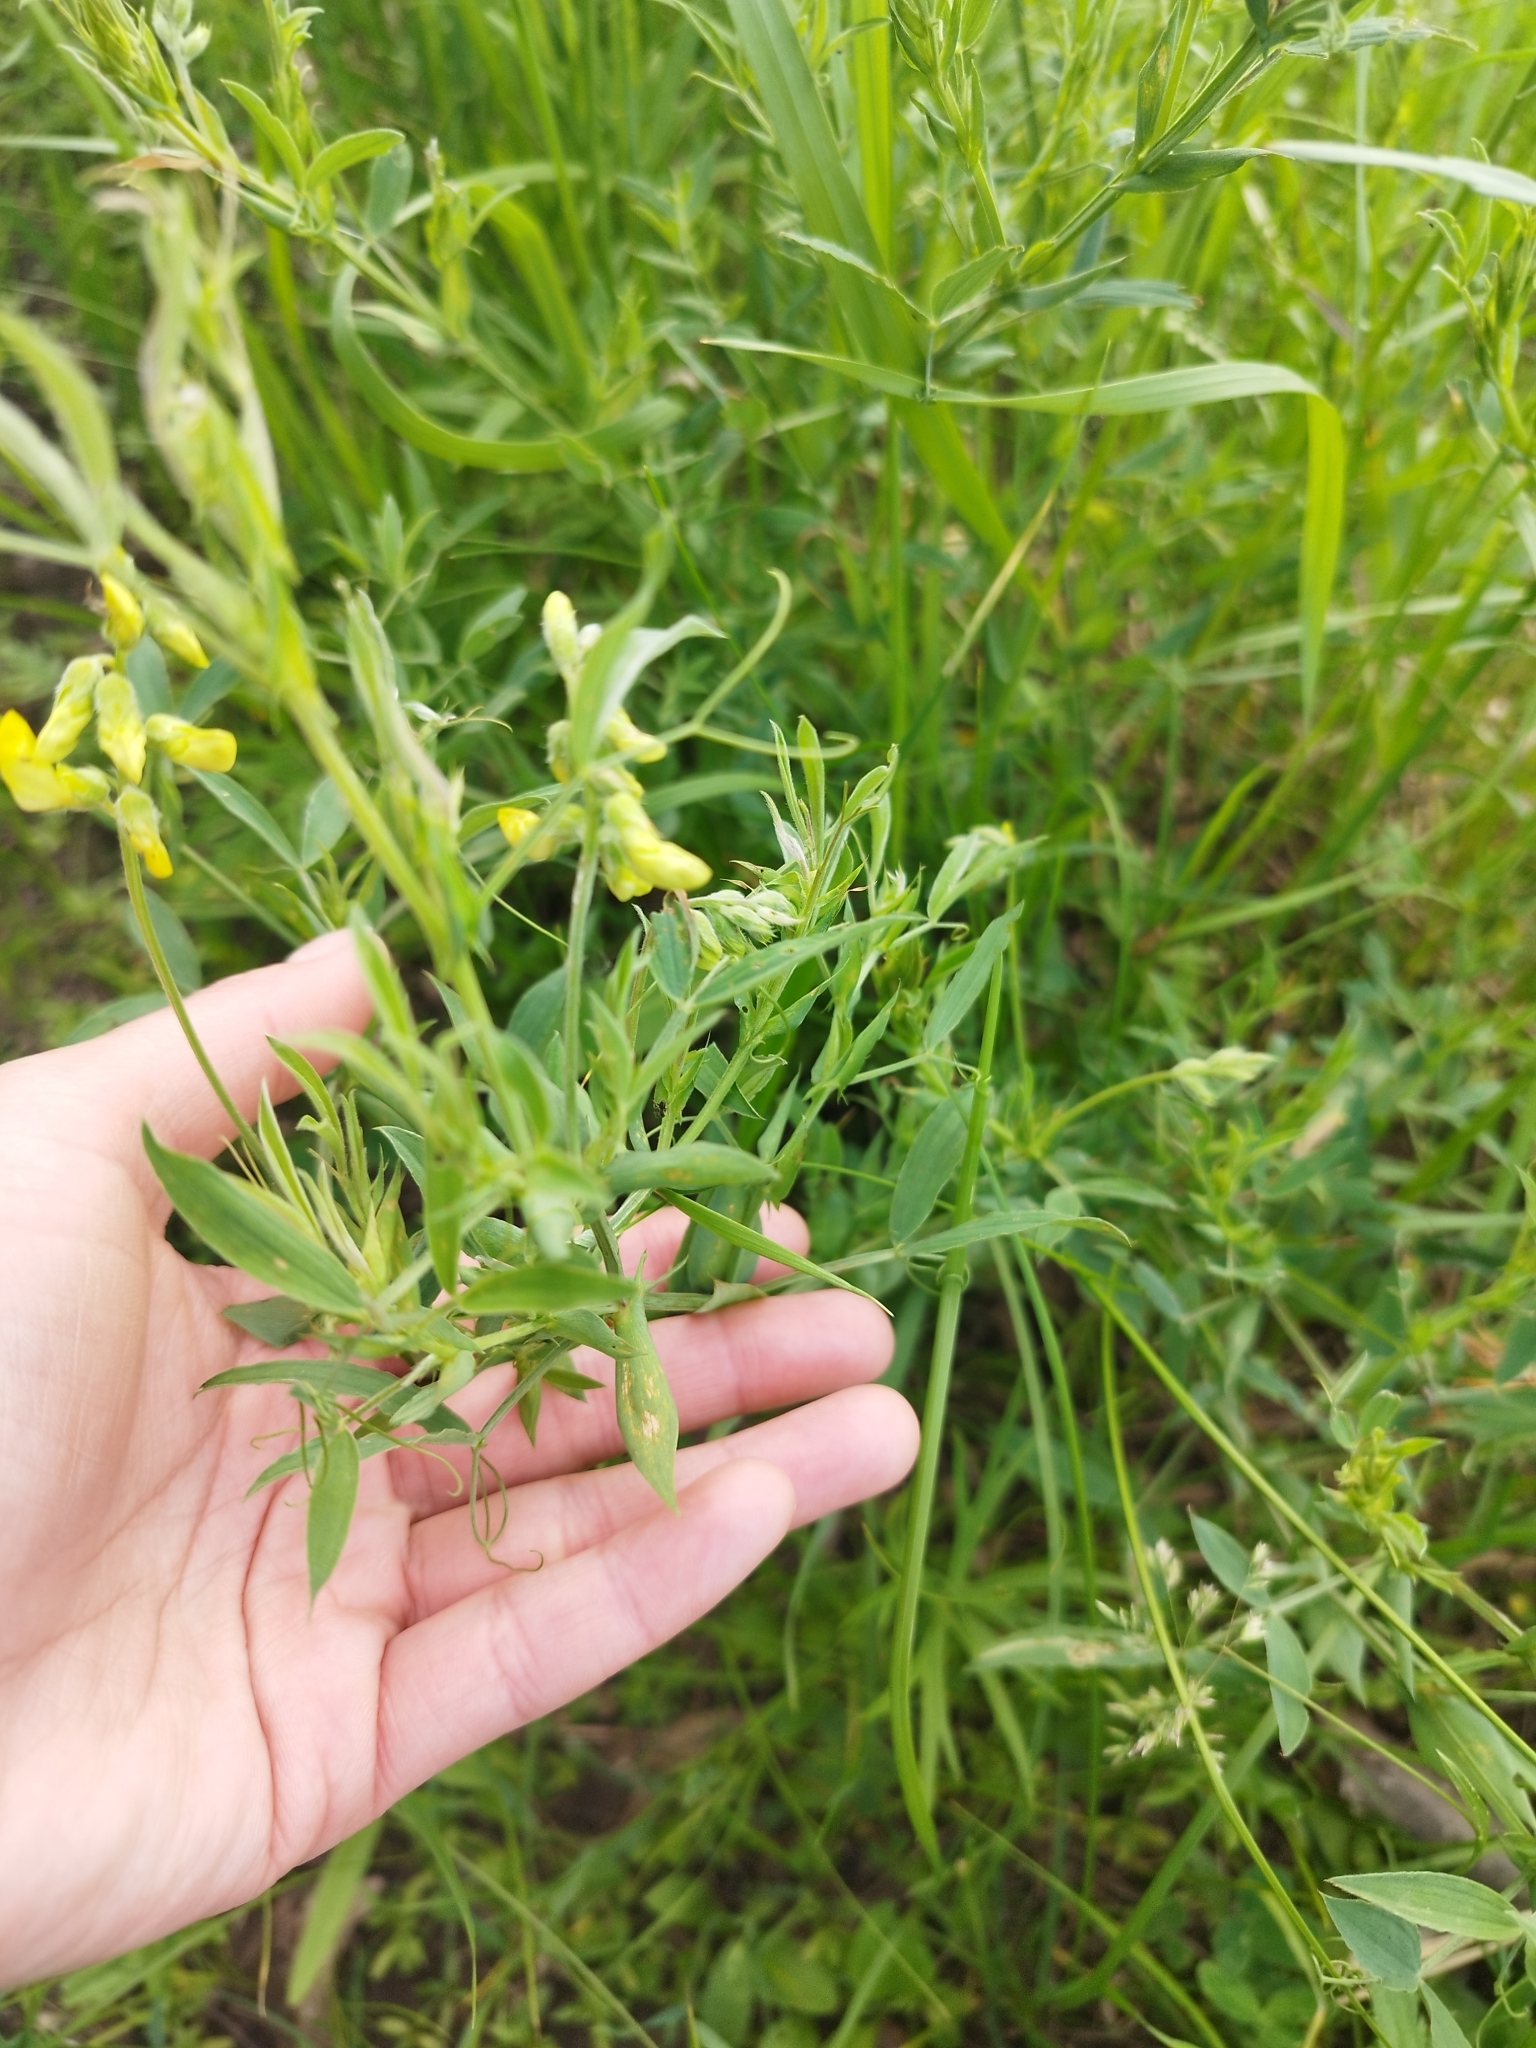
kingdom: Plantae
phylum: Tracheophyta
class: Magnoliopsida
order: Fabales
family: Fabaceae
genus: Lathyrus
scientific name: Lathyrus pratensis
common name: Meadow vetchling
